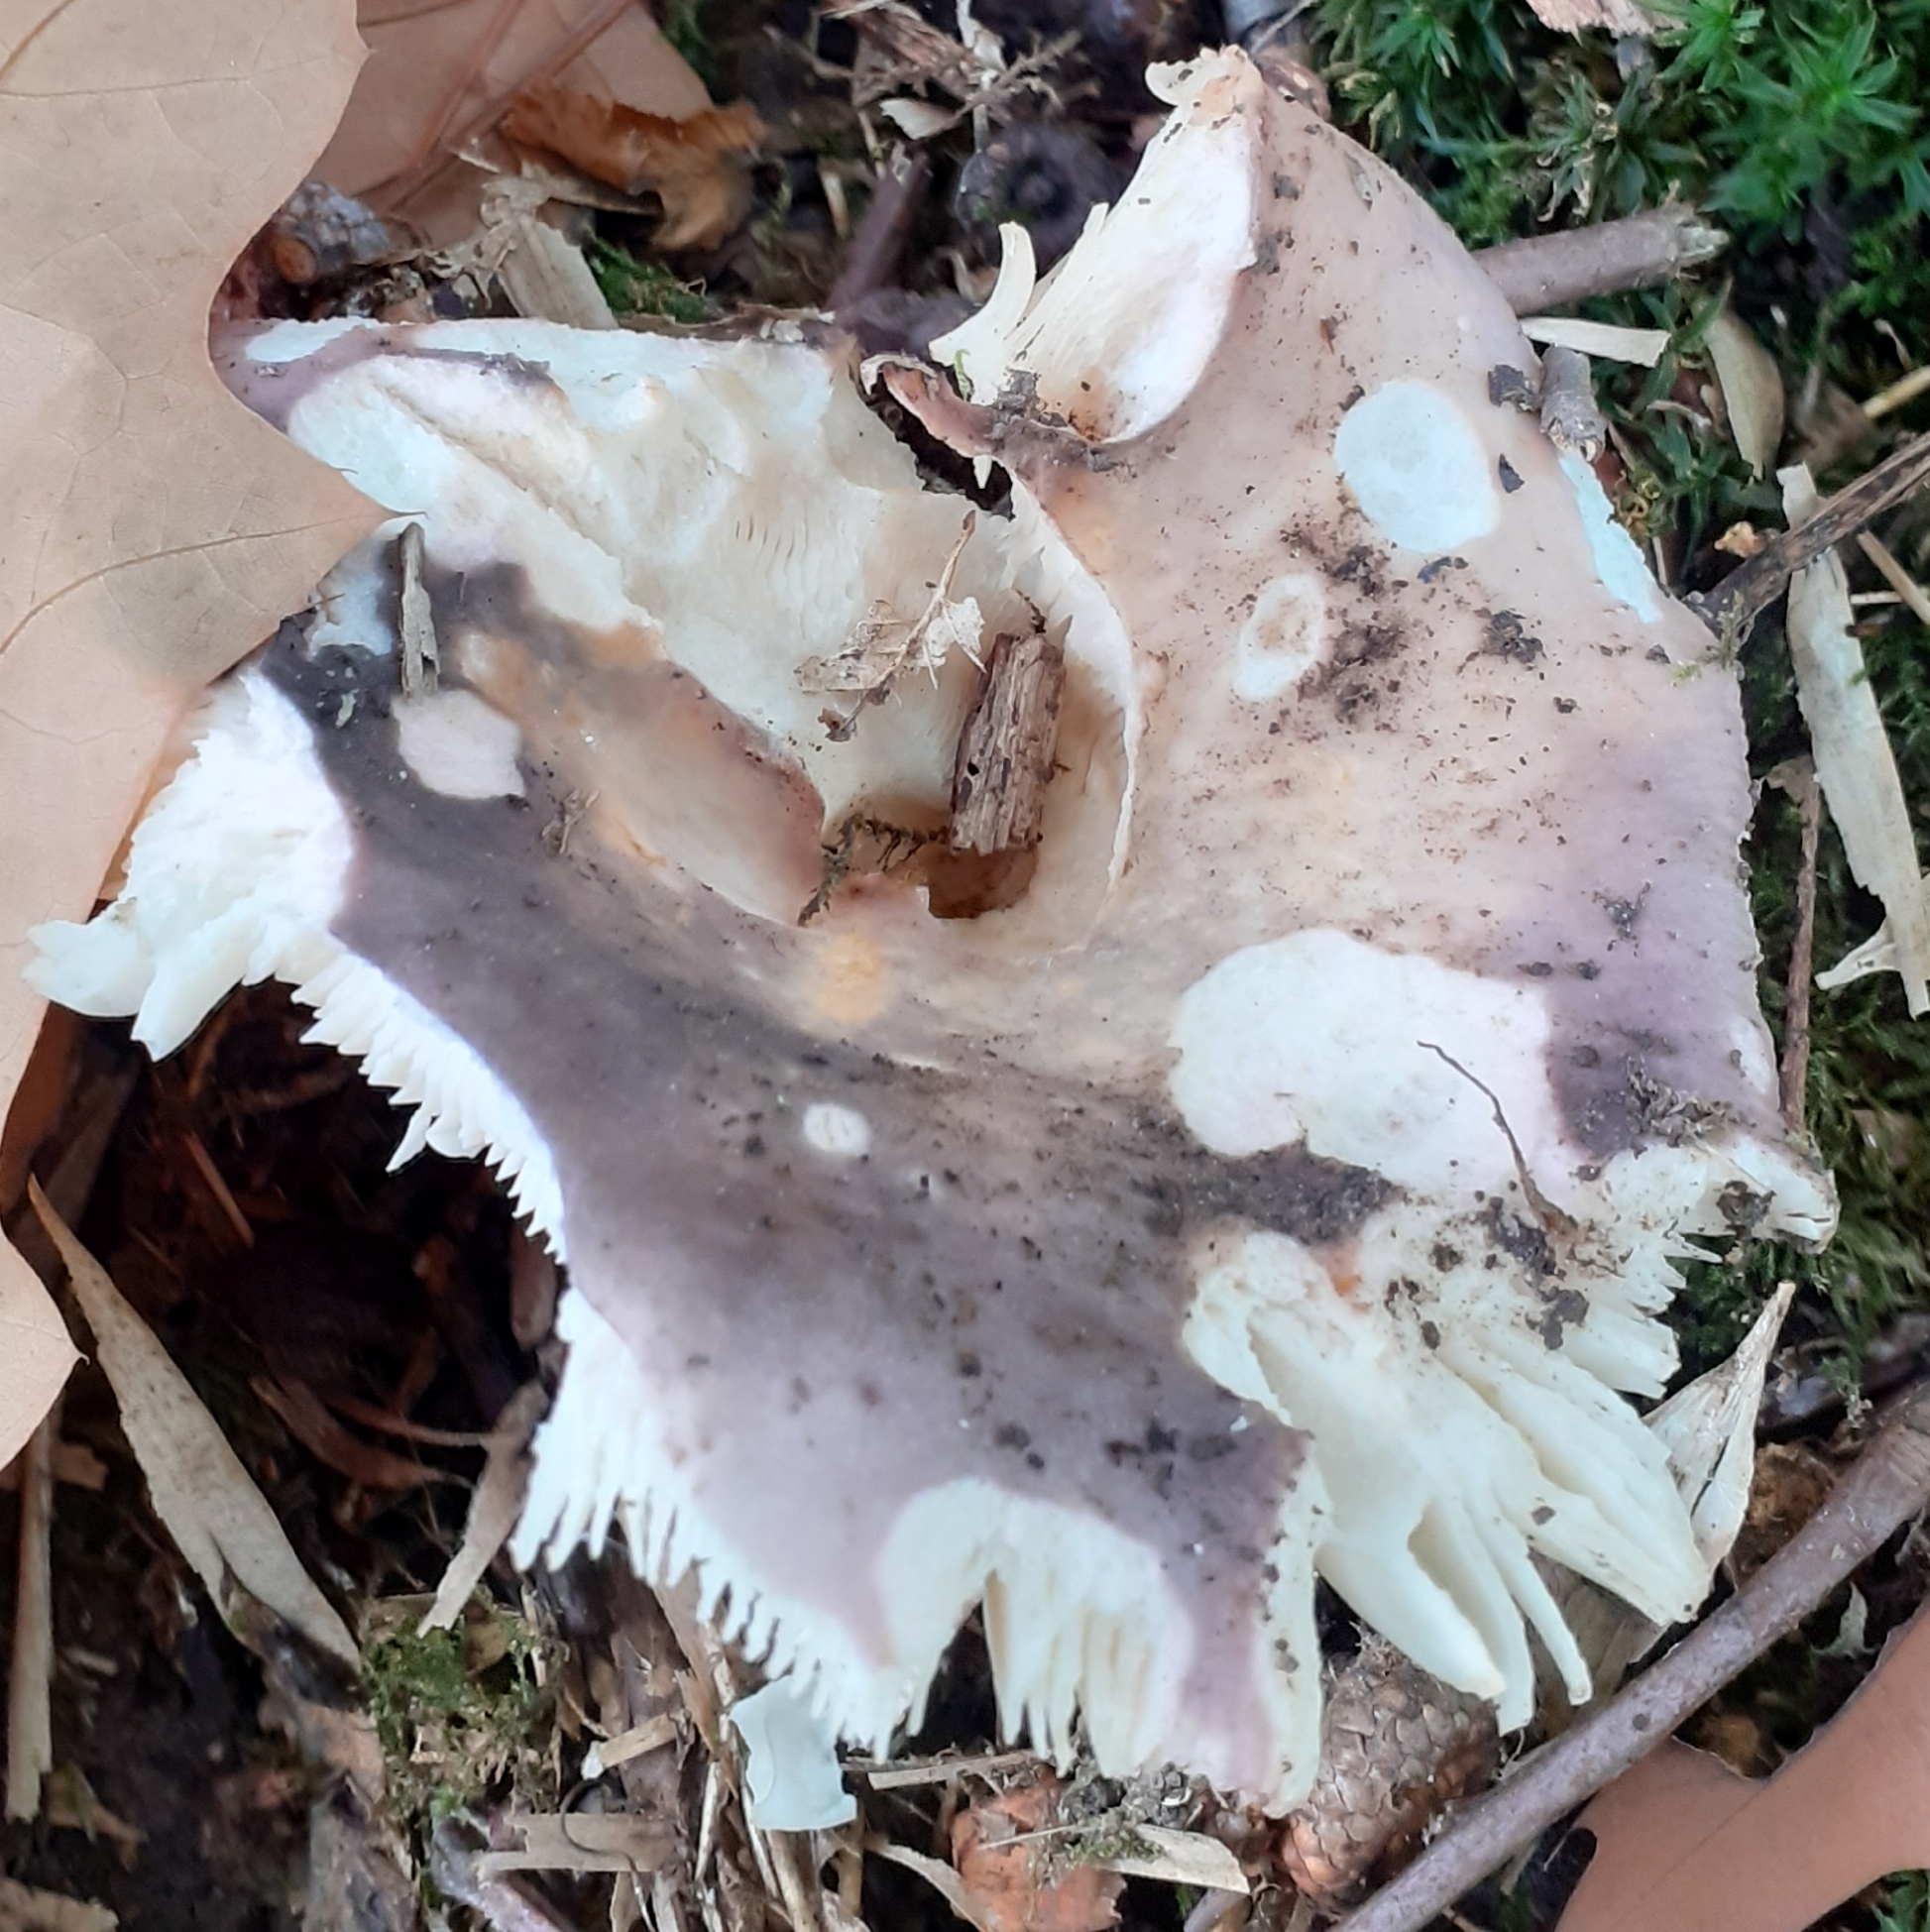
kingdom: Fungi
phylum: Basidiomycota
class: Agaricomycetes
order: Russulales
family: Russulaceae
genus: Russula
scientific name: Russula cyanoxantha
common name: Charcoal burner
